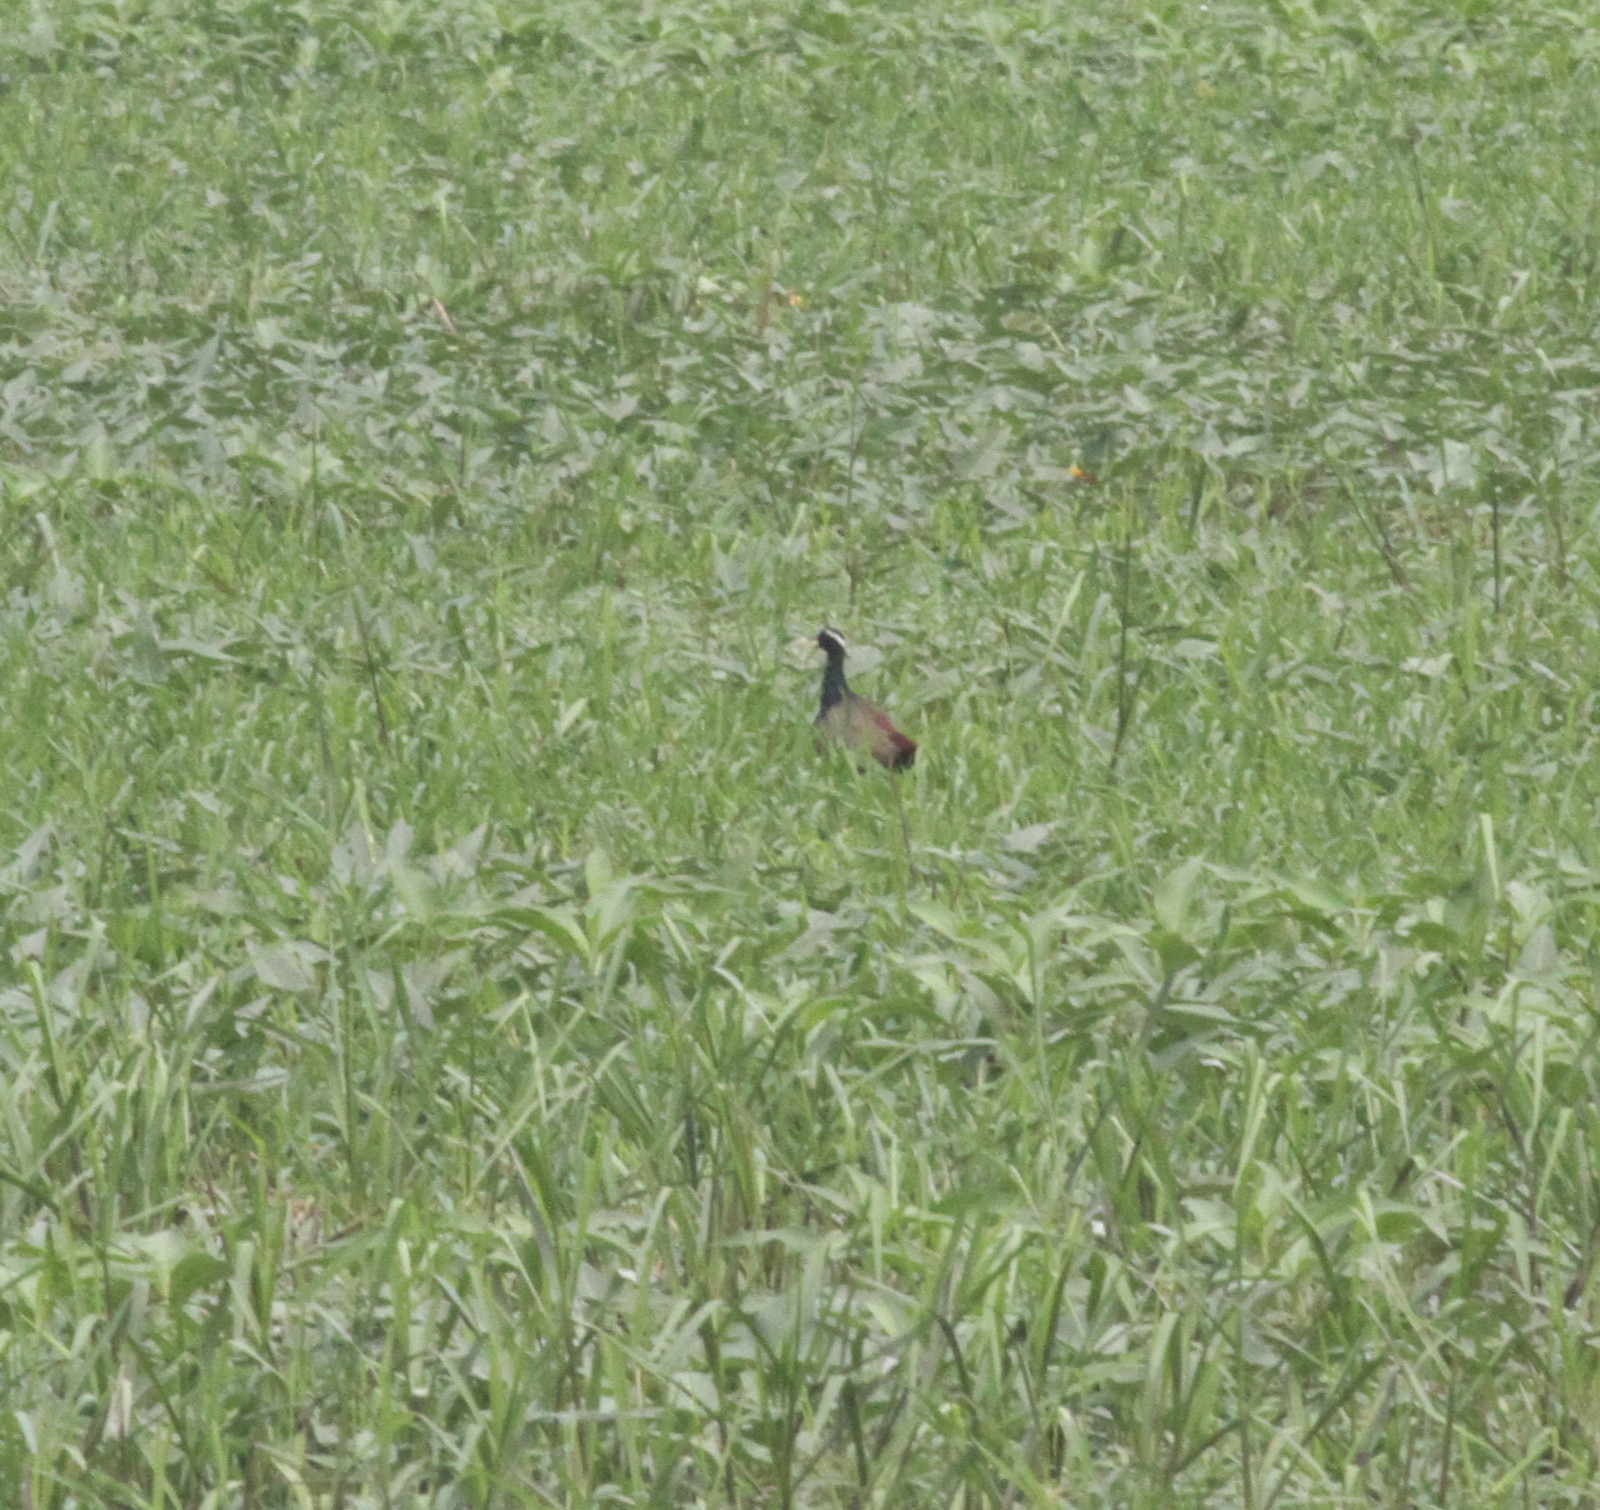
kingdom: Animalia
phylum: Chordata
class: Aves
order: Charadriiformes
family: Jacanidae
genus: Metopidius
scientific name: Metopidius indicus
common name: Bronze-winged jacana
